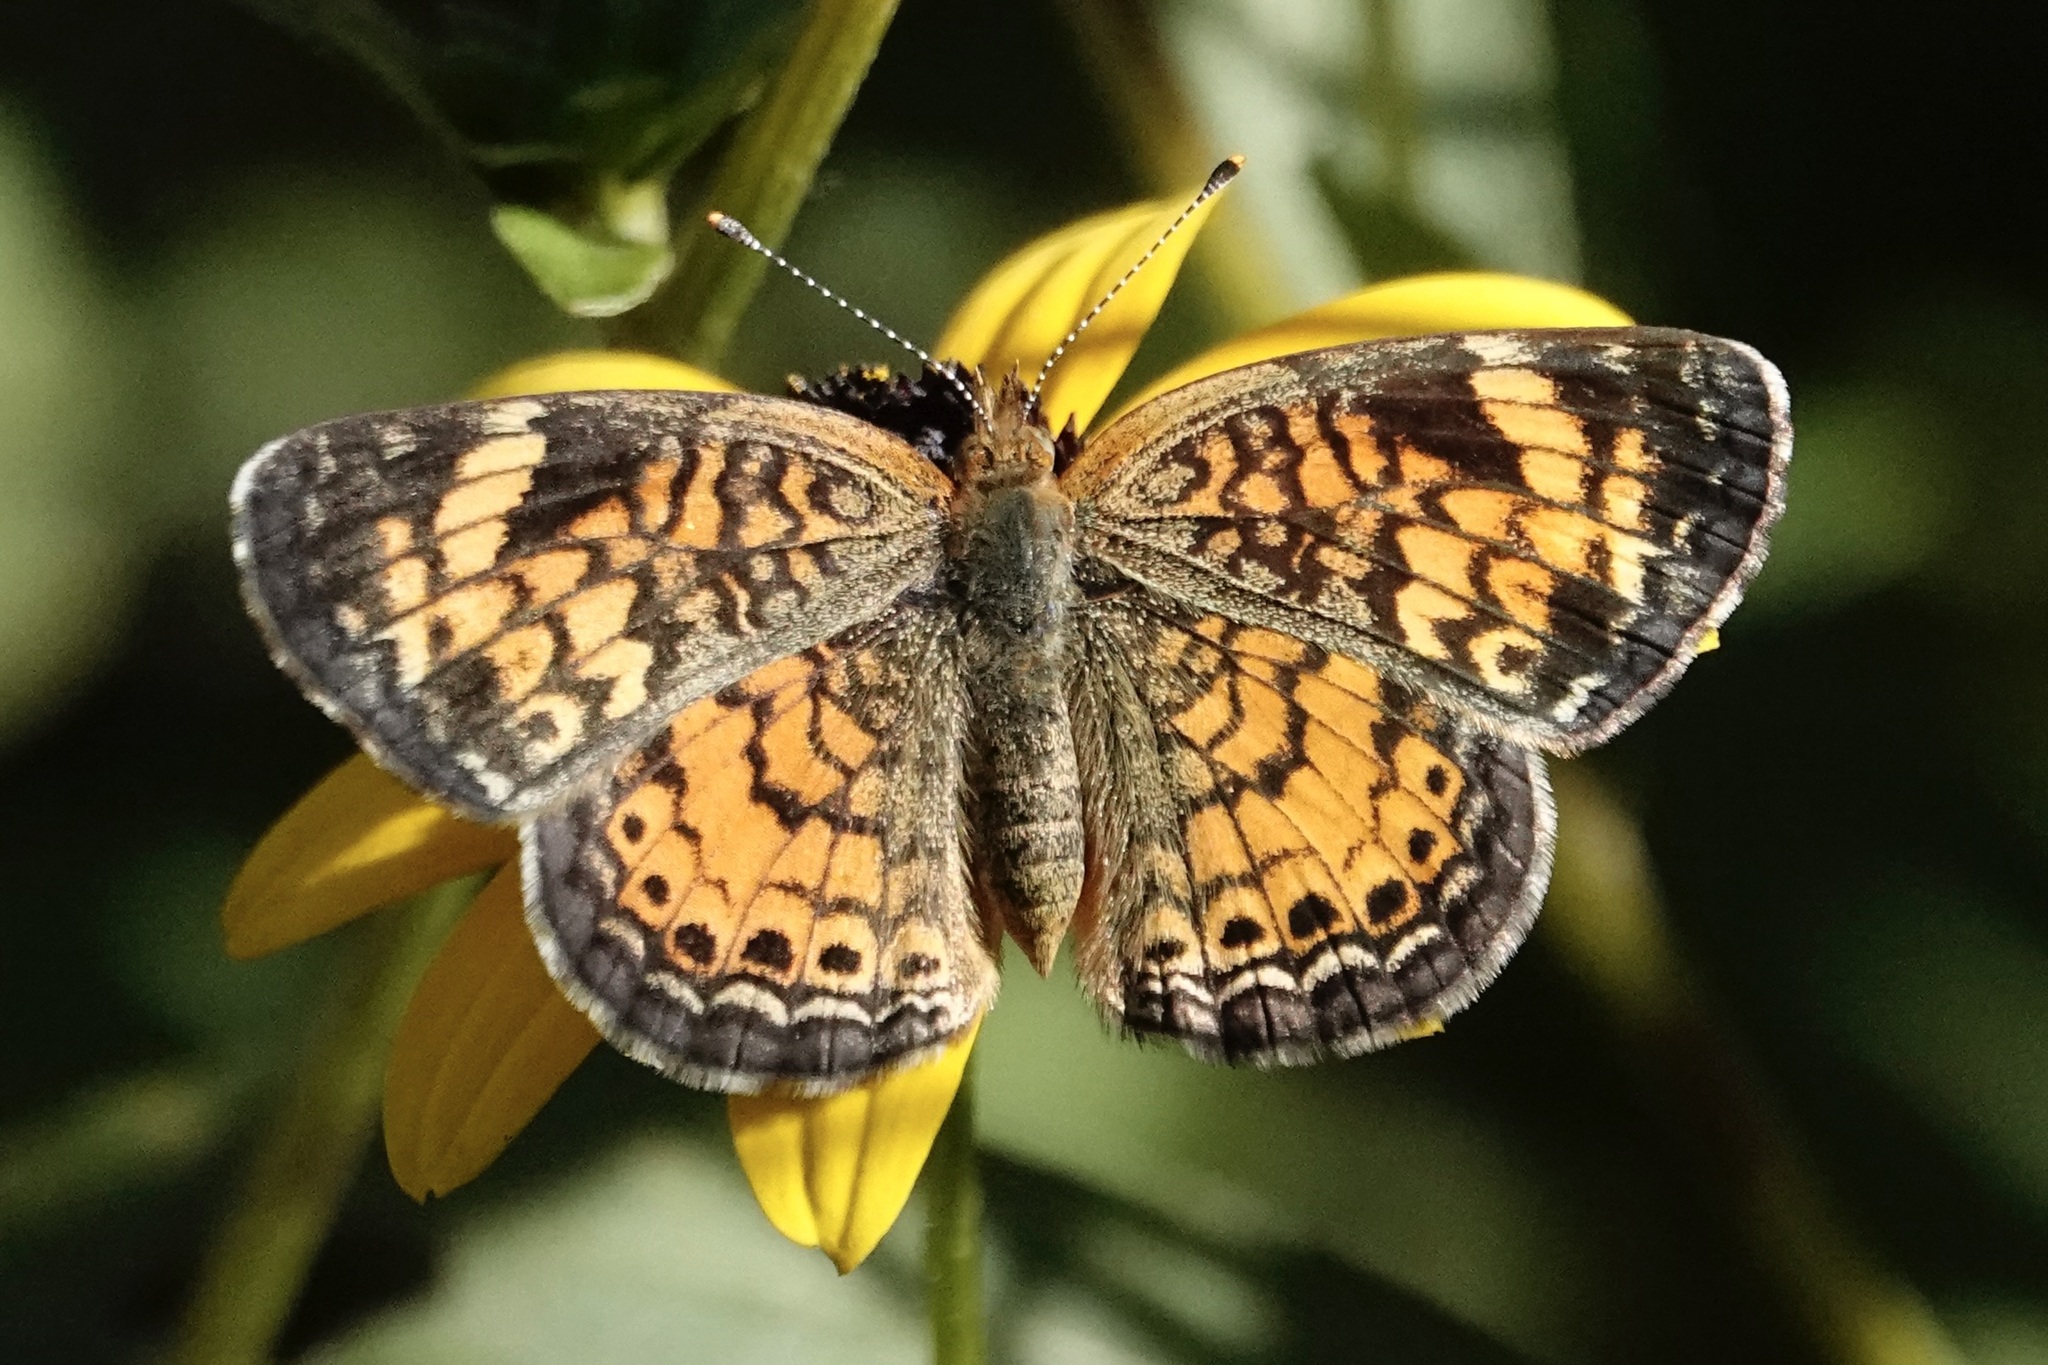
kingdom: Animalia
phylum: Arthropoda
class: Insecta
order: Lepidoptera
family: Nymphalidae
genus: Phyciodes
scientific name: Phyciodes tharos
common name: Pearl crescent
